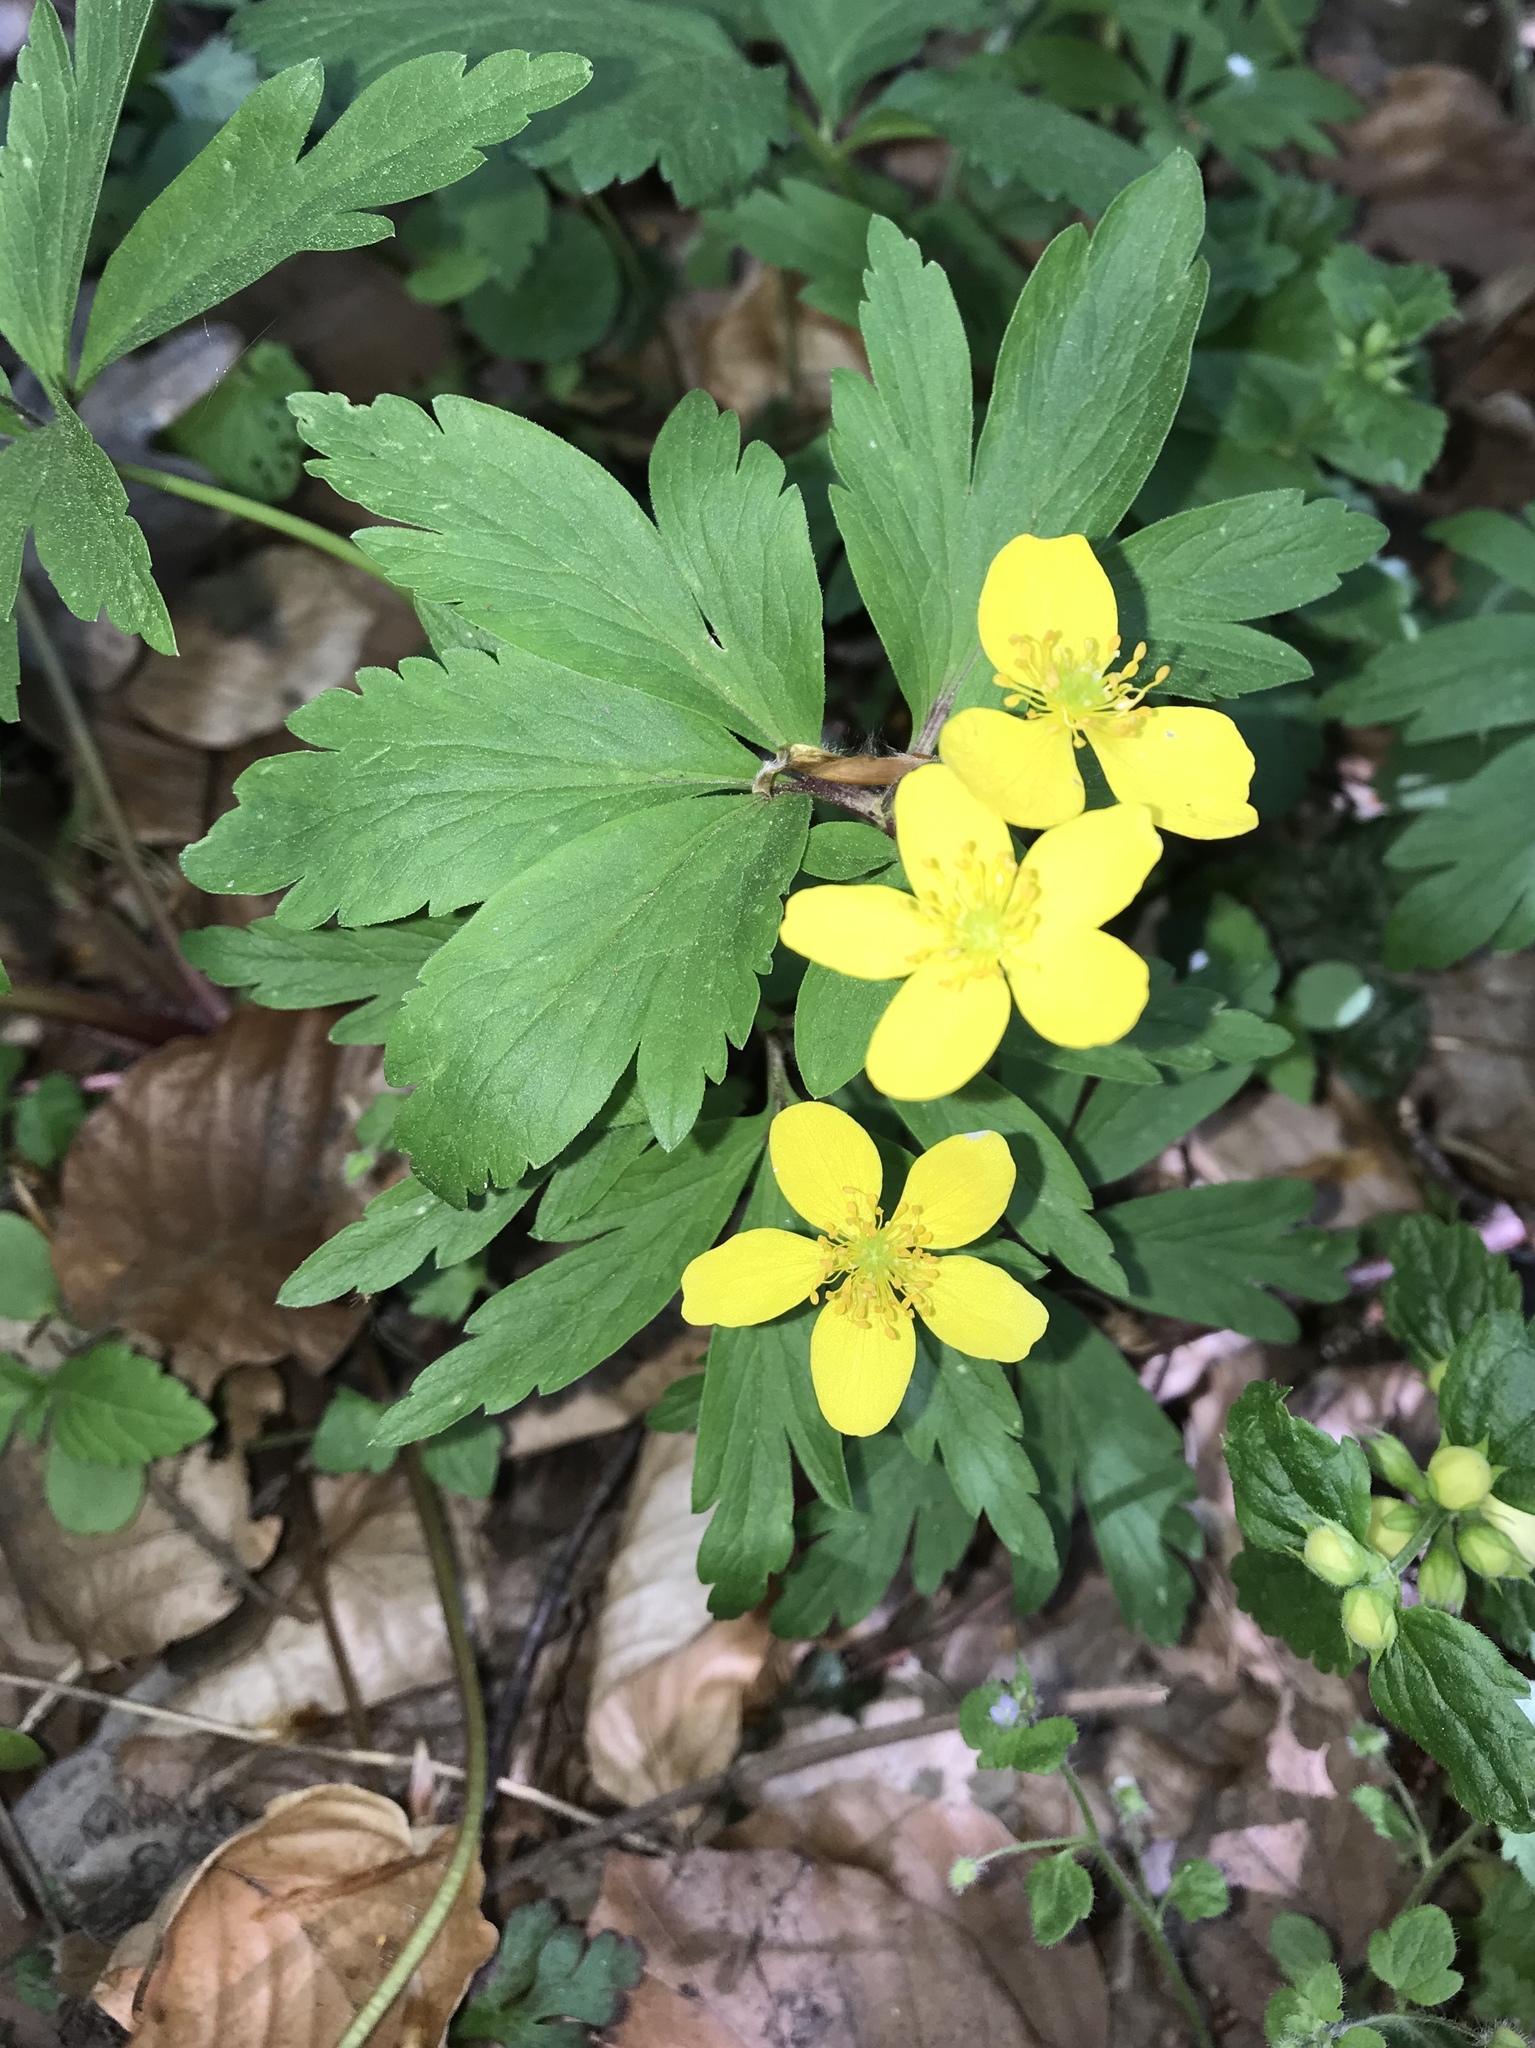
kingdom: Plantae
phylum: Tracheophyta
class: Magnoliopsida
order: Ranunculales
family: Ranunculaceae
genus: Anemone
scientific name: Anemone ranunculoides
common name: Yellow anemone
